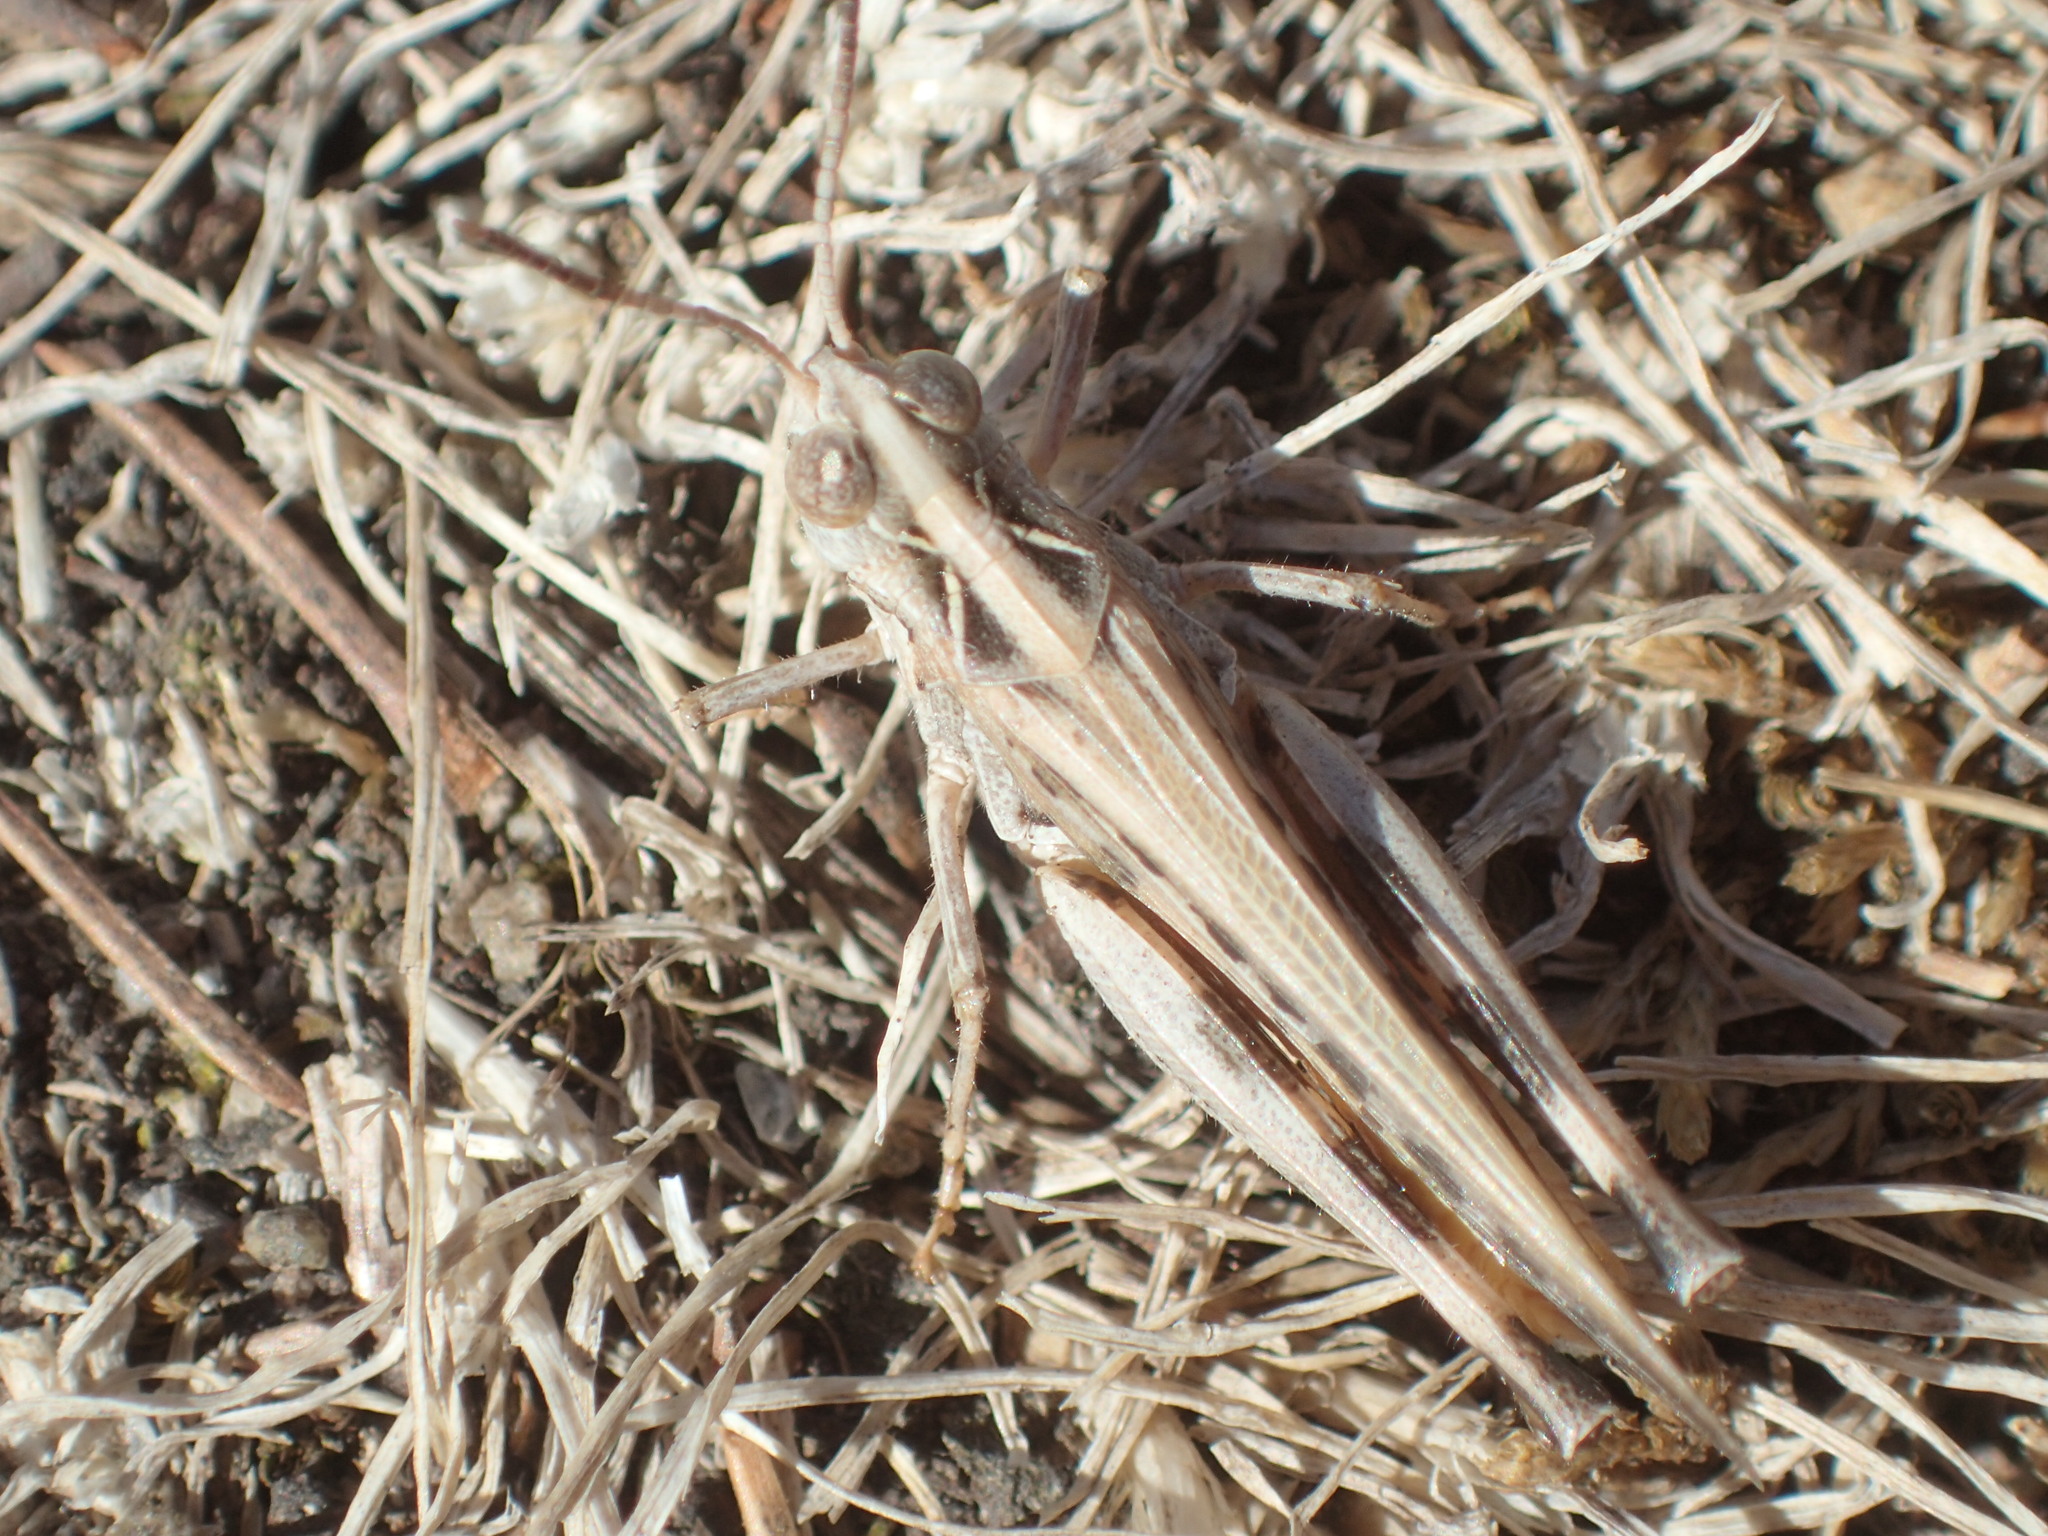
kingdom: Animalia
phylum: Arthropoda
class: Insecta
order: Orthoptera
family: Acrididae
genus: Austroicetes
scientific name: Austroicetes vulgaris
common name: Southeastern austroicetes
